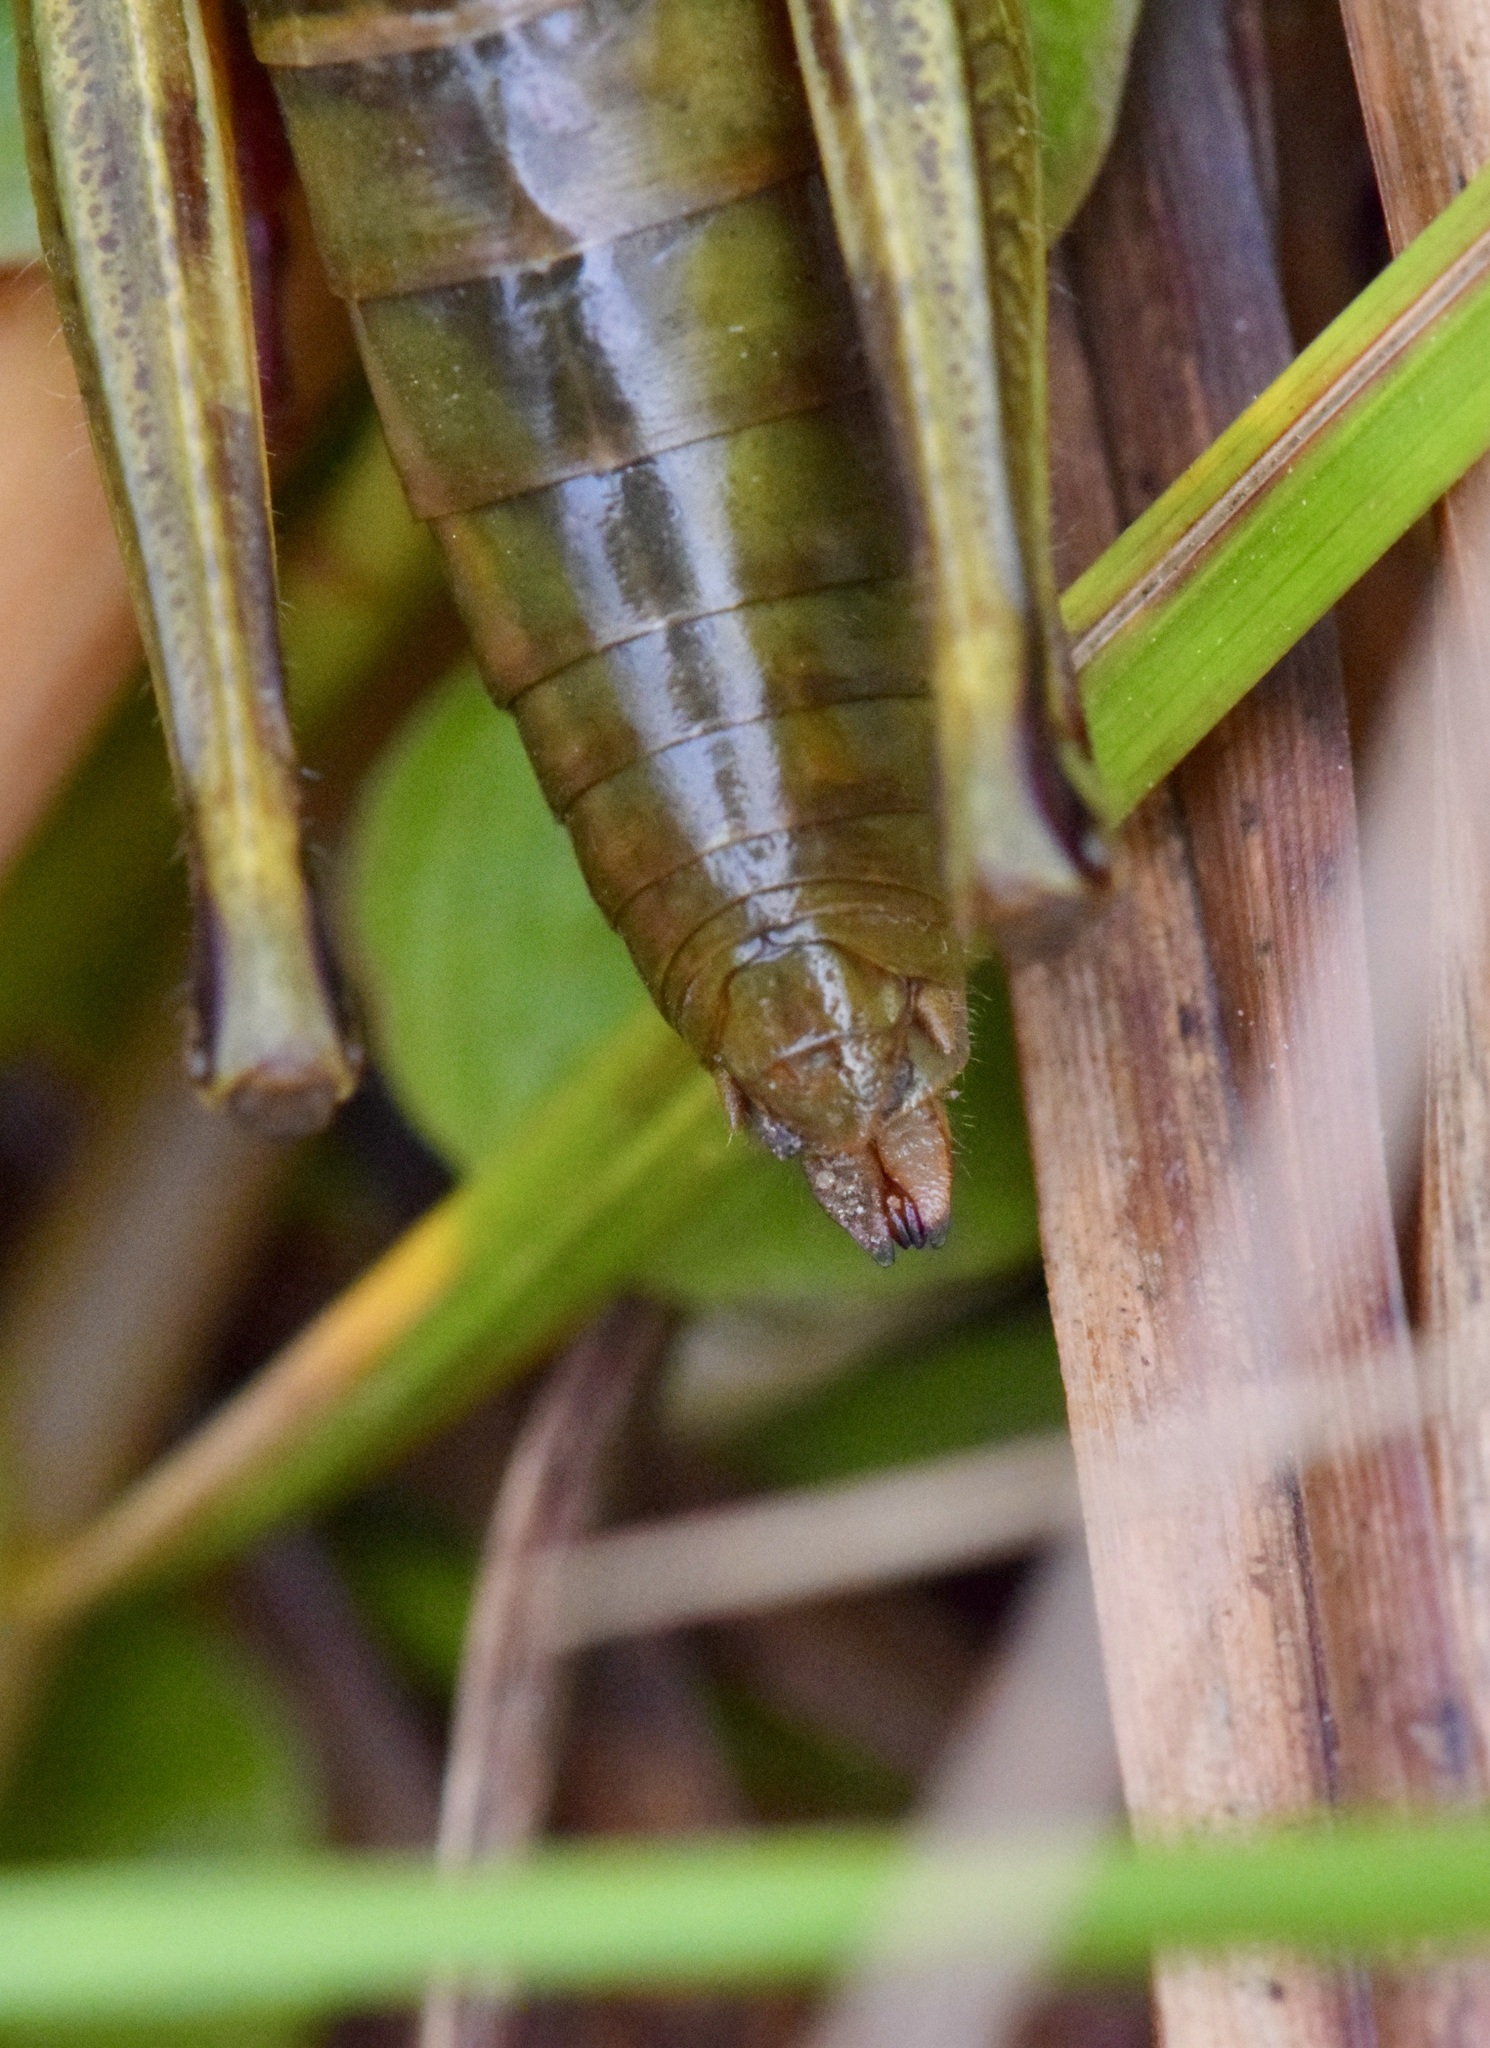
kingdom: Animalia
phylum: Arthropoda
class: Insecta
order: Orthoptera
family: Acrididae
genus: Melanoplus
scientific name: Melanoplus bivittatus
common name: Two-striped grasshopper
